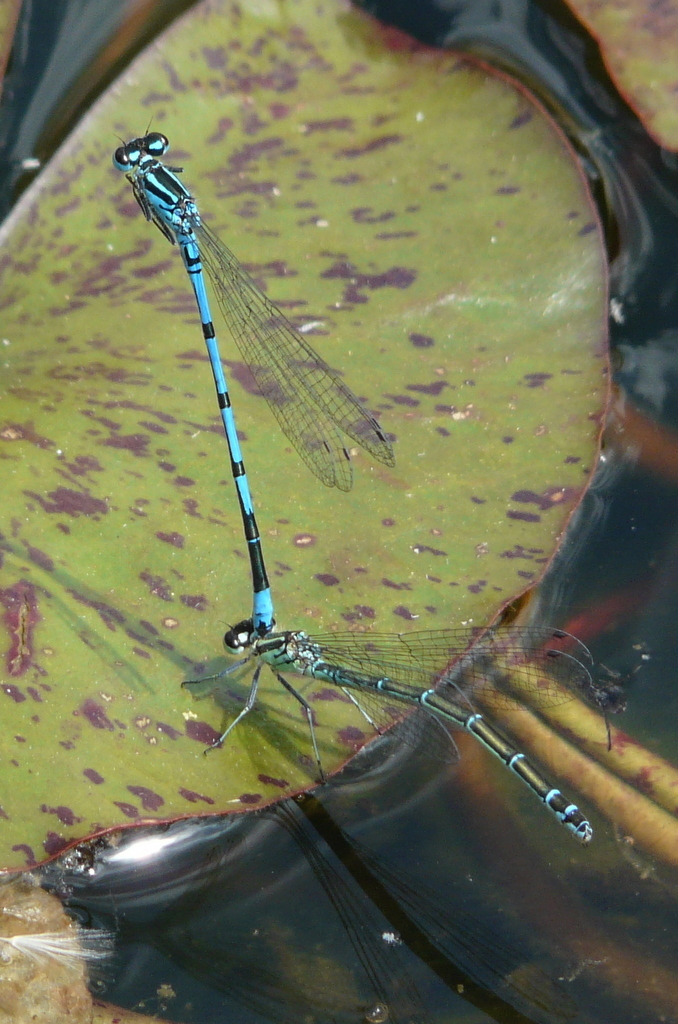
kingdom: Animalia
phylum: Arthropoda
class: Insecta
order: Odonata
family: Coenagrionidae
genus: Coenagrion
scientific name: Coenagrion puella
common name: Azure damselfly
